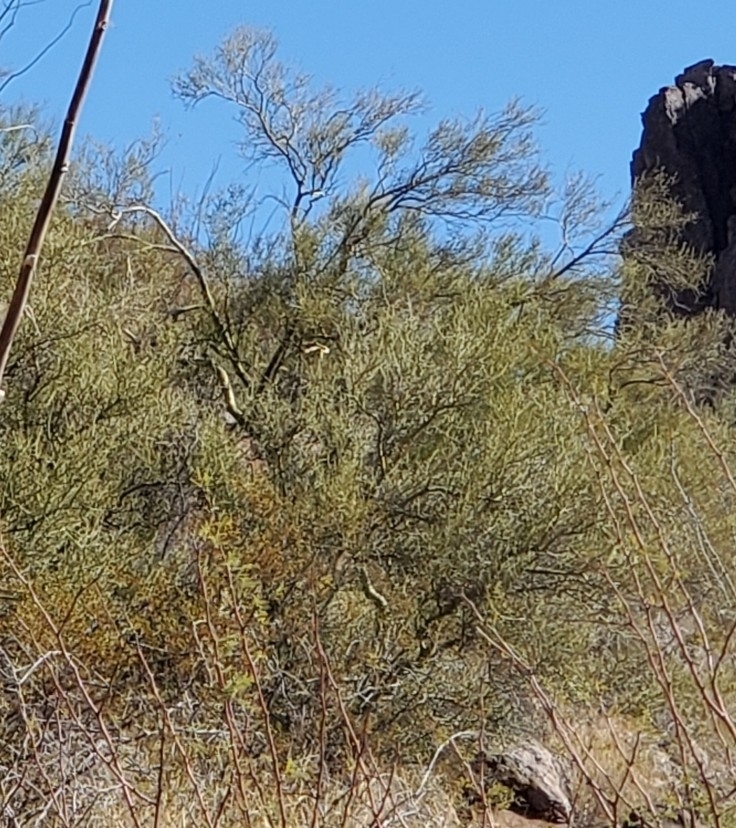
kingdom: Plantae
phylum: Tracheophyta
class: Magnoliopsida
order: Fabales
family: Fabaceae
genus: Parkinsonia
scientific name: Parkinsonia microphylla
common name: Yellow paloverde
